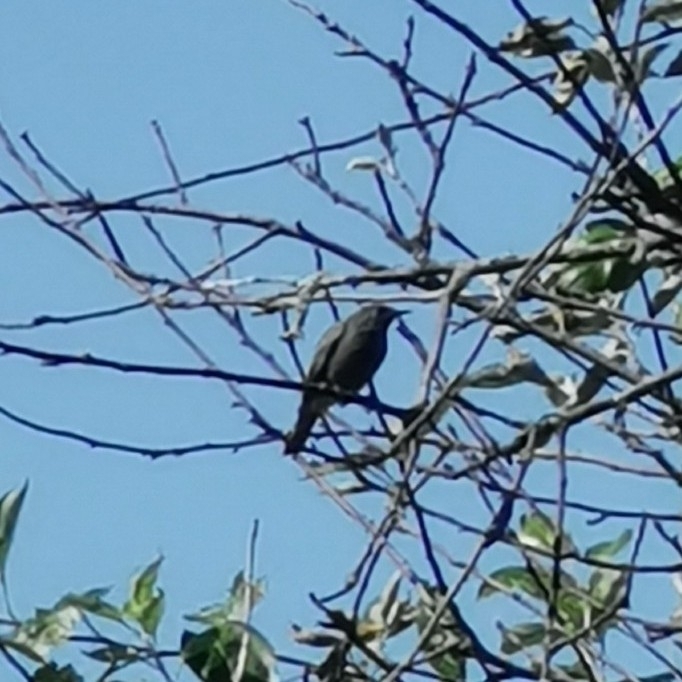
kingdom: Animalia
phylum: Chordata
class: Aves
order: Passeriformes
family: Muscicapidae
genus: Phoenicurus
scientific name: Phoenicurus ochruros
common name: Black redstart
